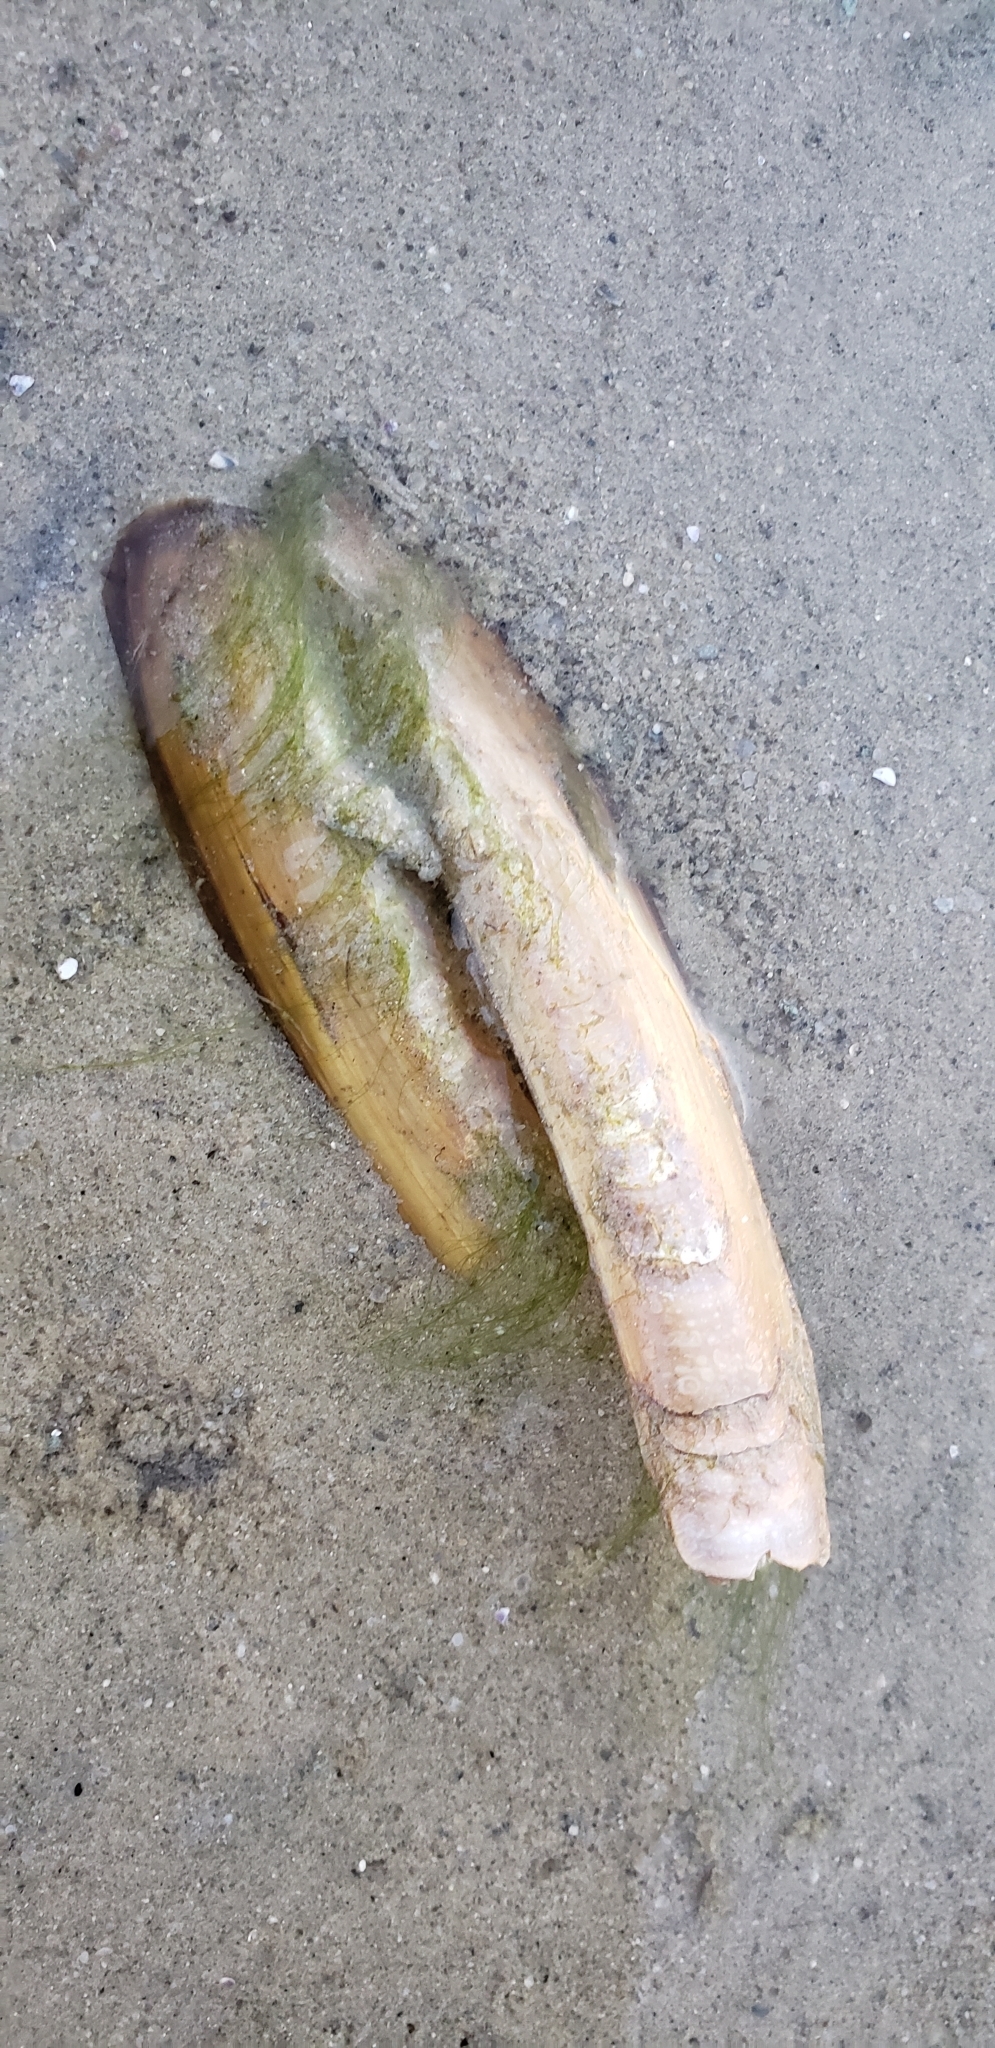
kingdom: Animalia
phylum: Mollusca
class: Bivalvia
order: Adapedonta
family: Pharidae
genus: Ensis
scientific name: Ensis leei
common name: American jack knife clam
